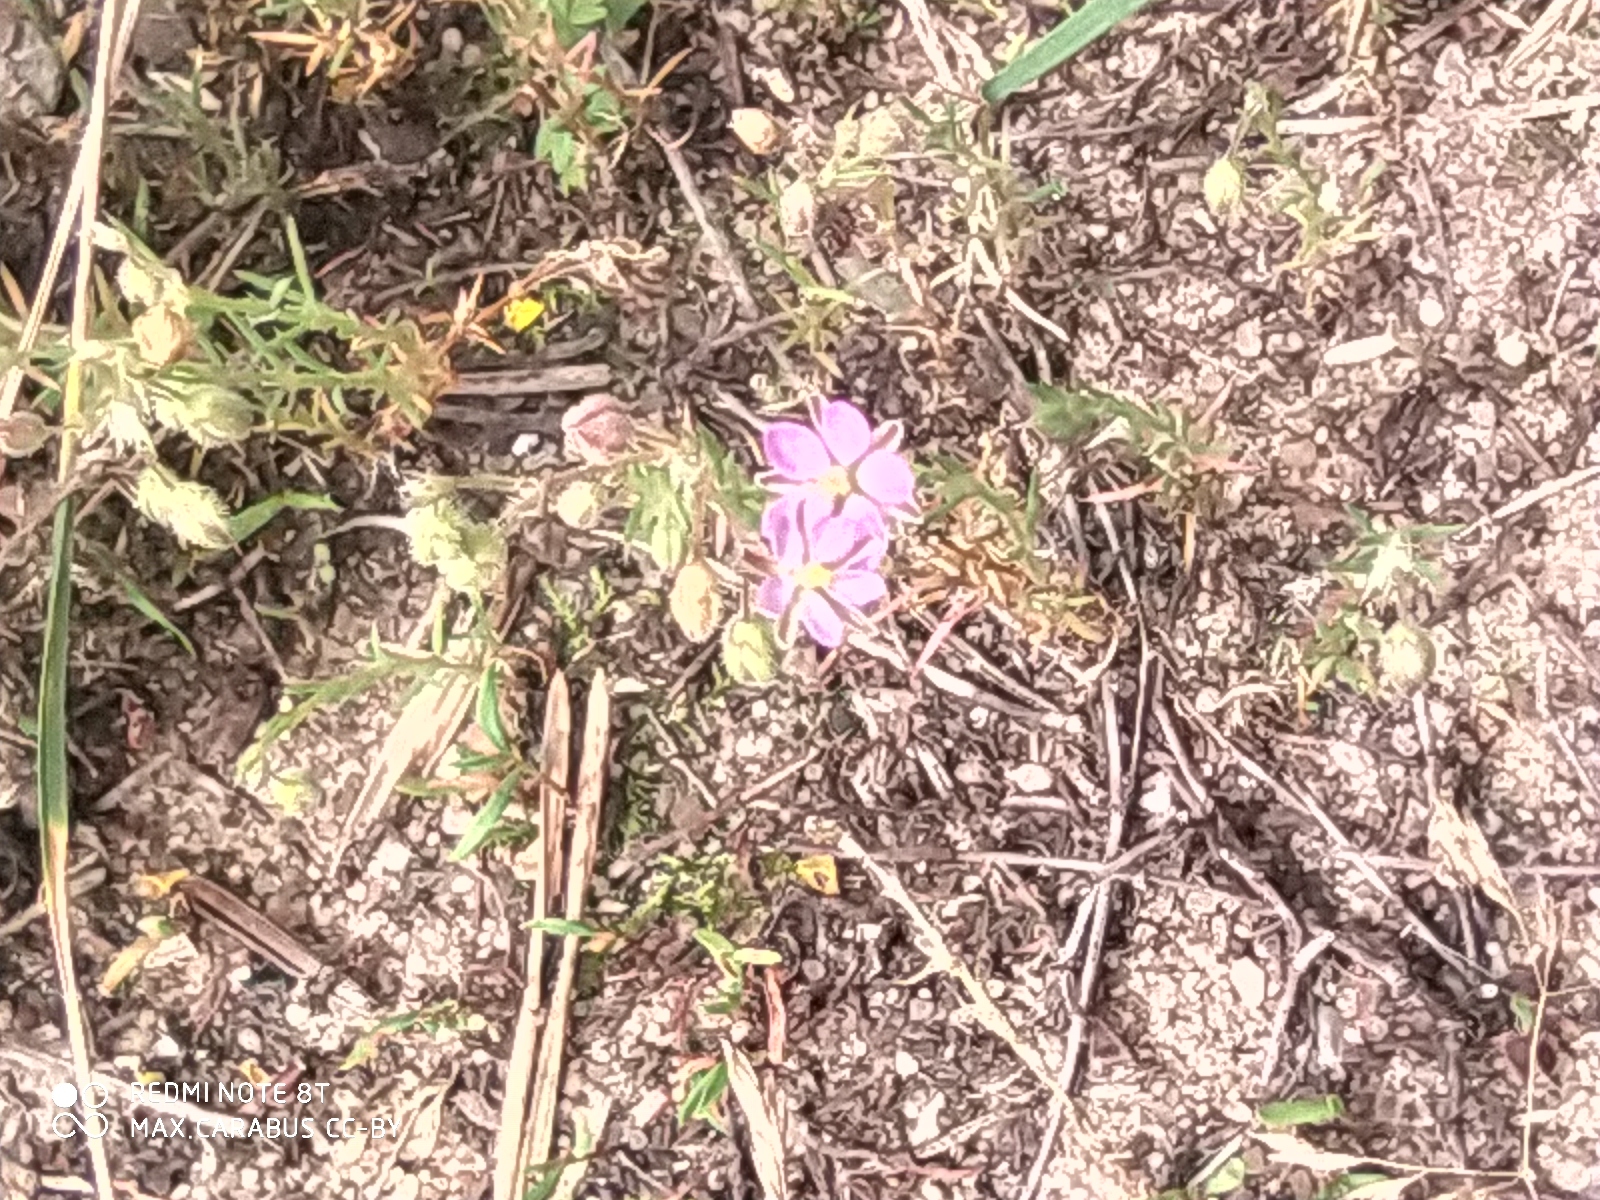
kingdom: Plantae
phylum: Tracheophyta
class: Magnoliopsida
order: Caryophyllales
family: Caryophyllaceae
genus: Spergularia
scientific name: Spergularia rubra
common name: Red sand-spurrey
